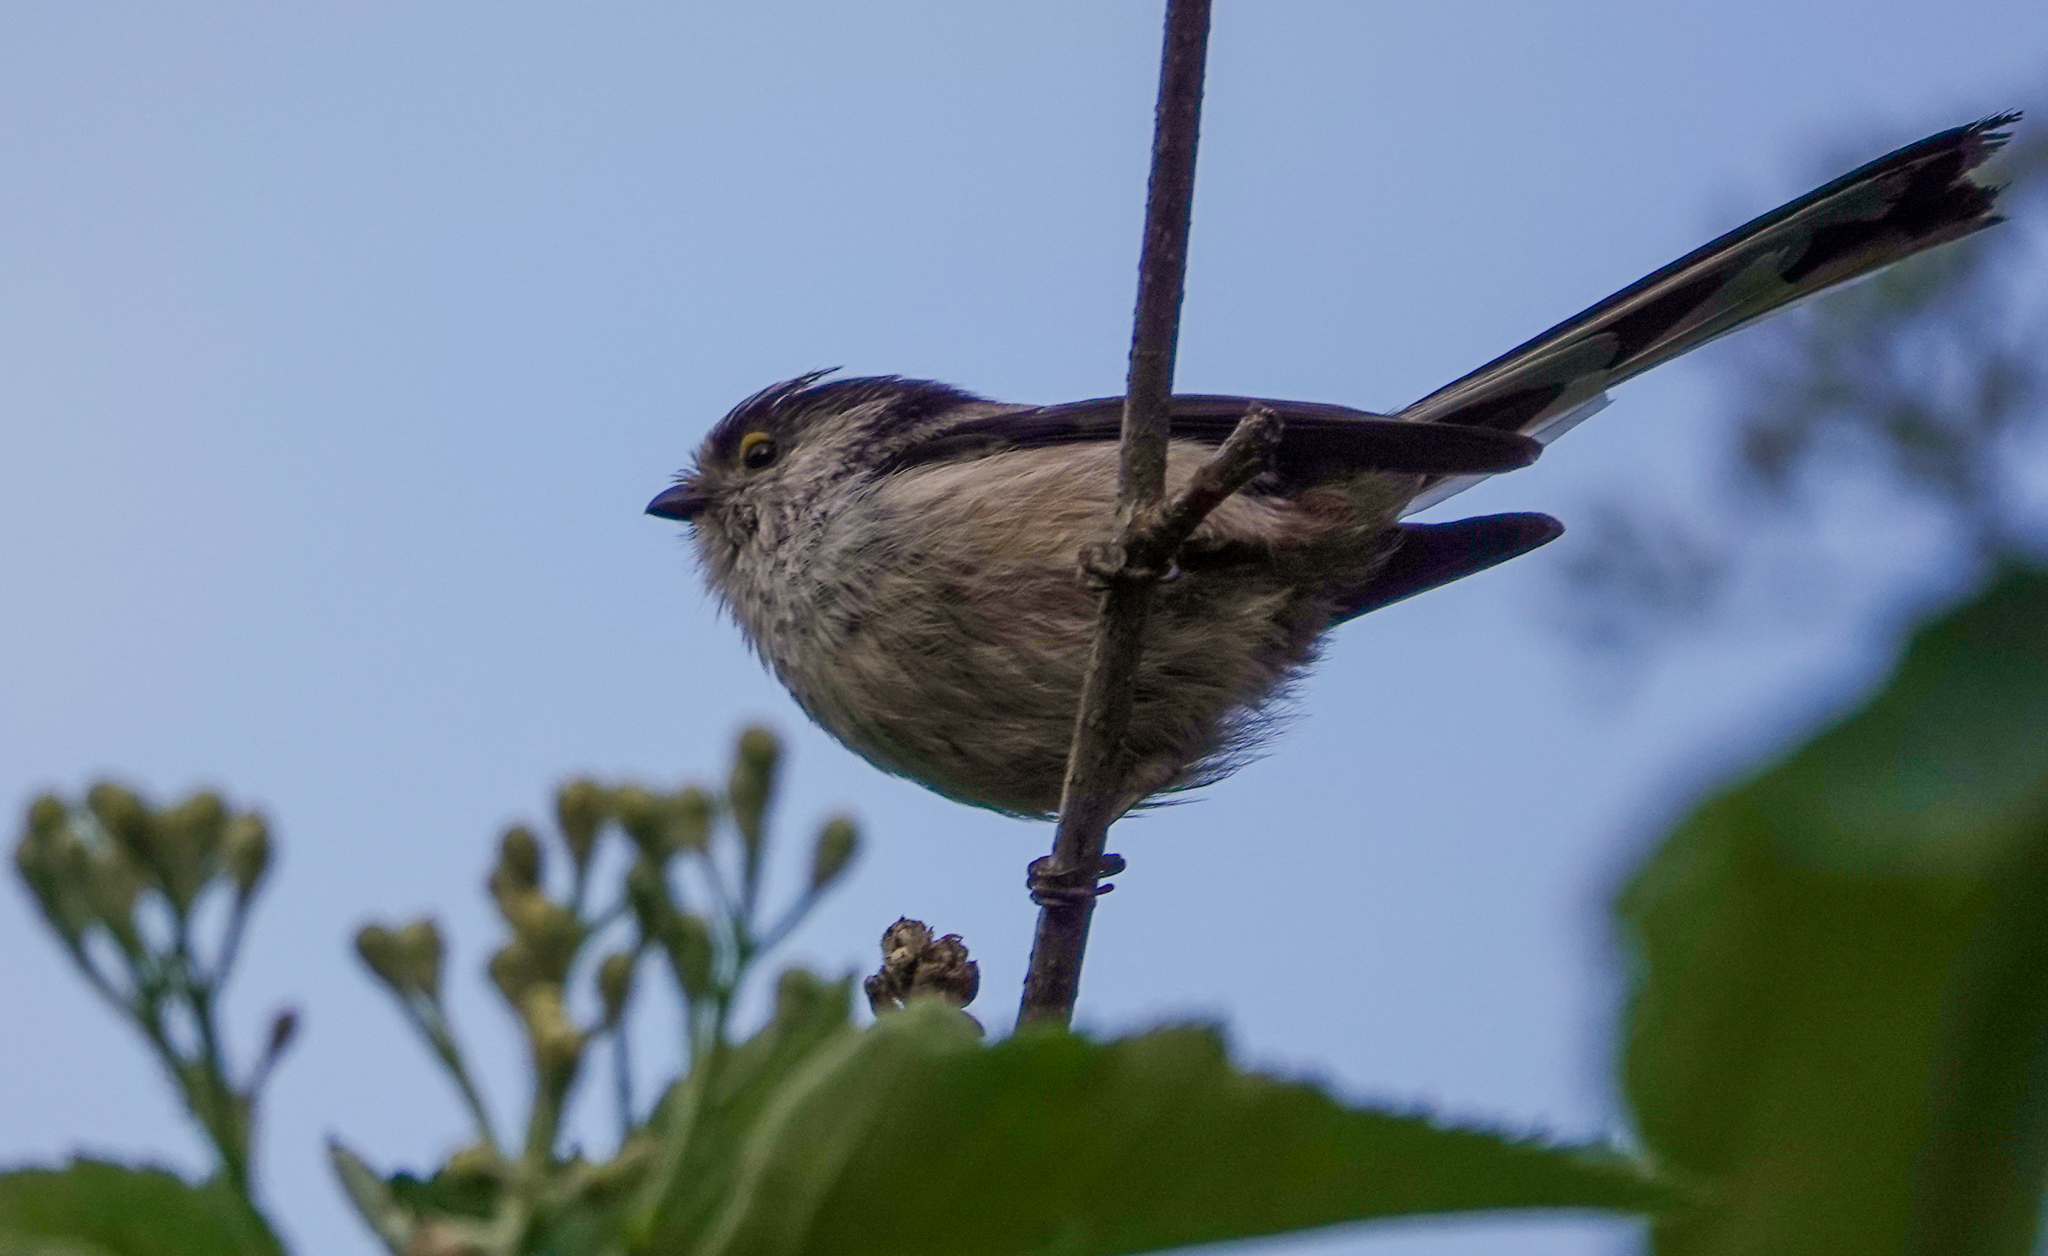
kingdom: Animalia
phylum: Chordata
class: Aves
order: Passeriformes
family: Aegithalidae
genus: Aegithalos
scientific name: Aegithalos caudatus
